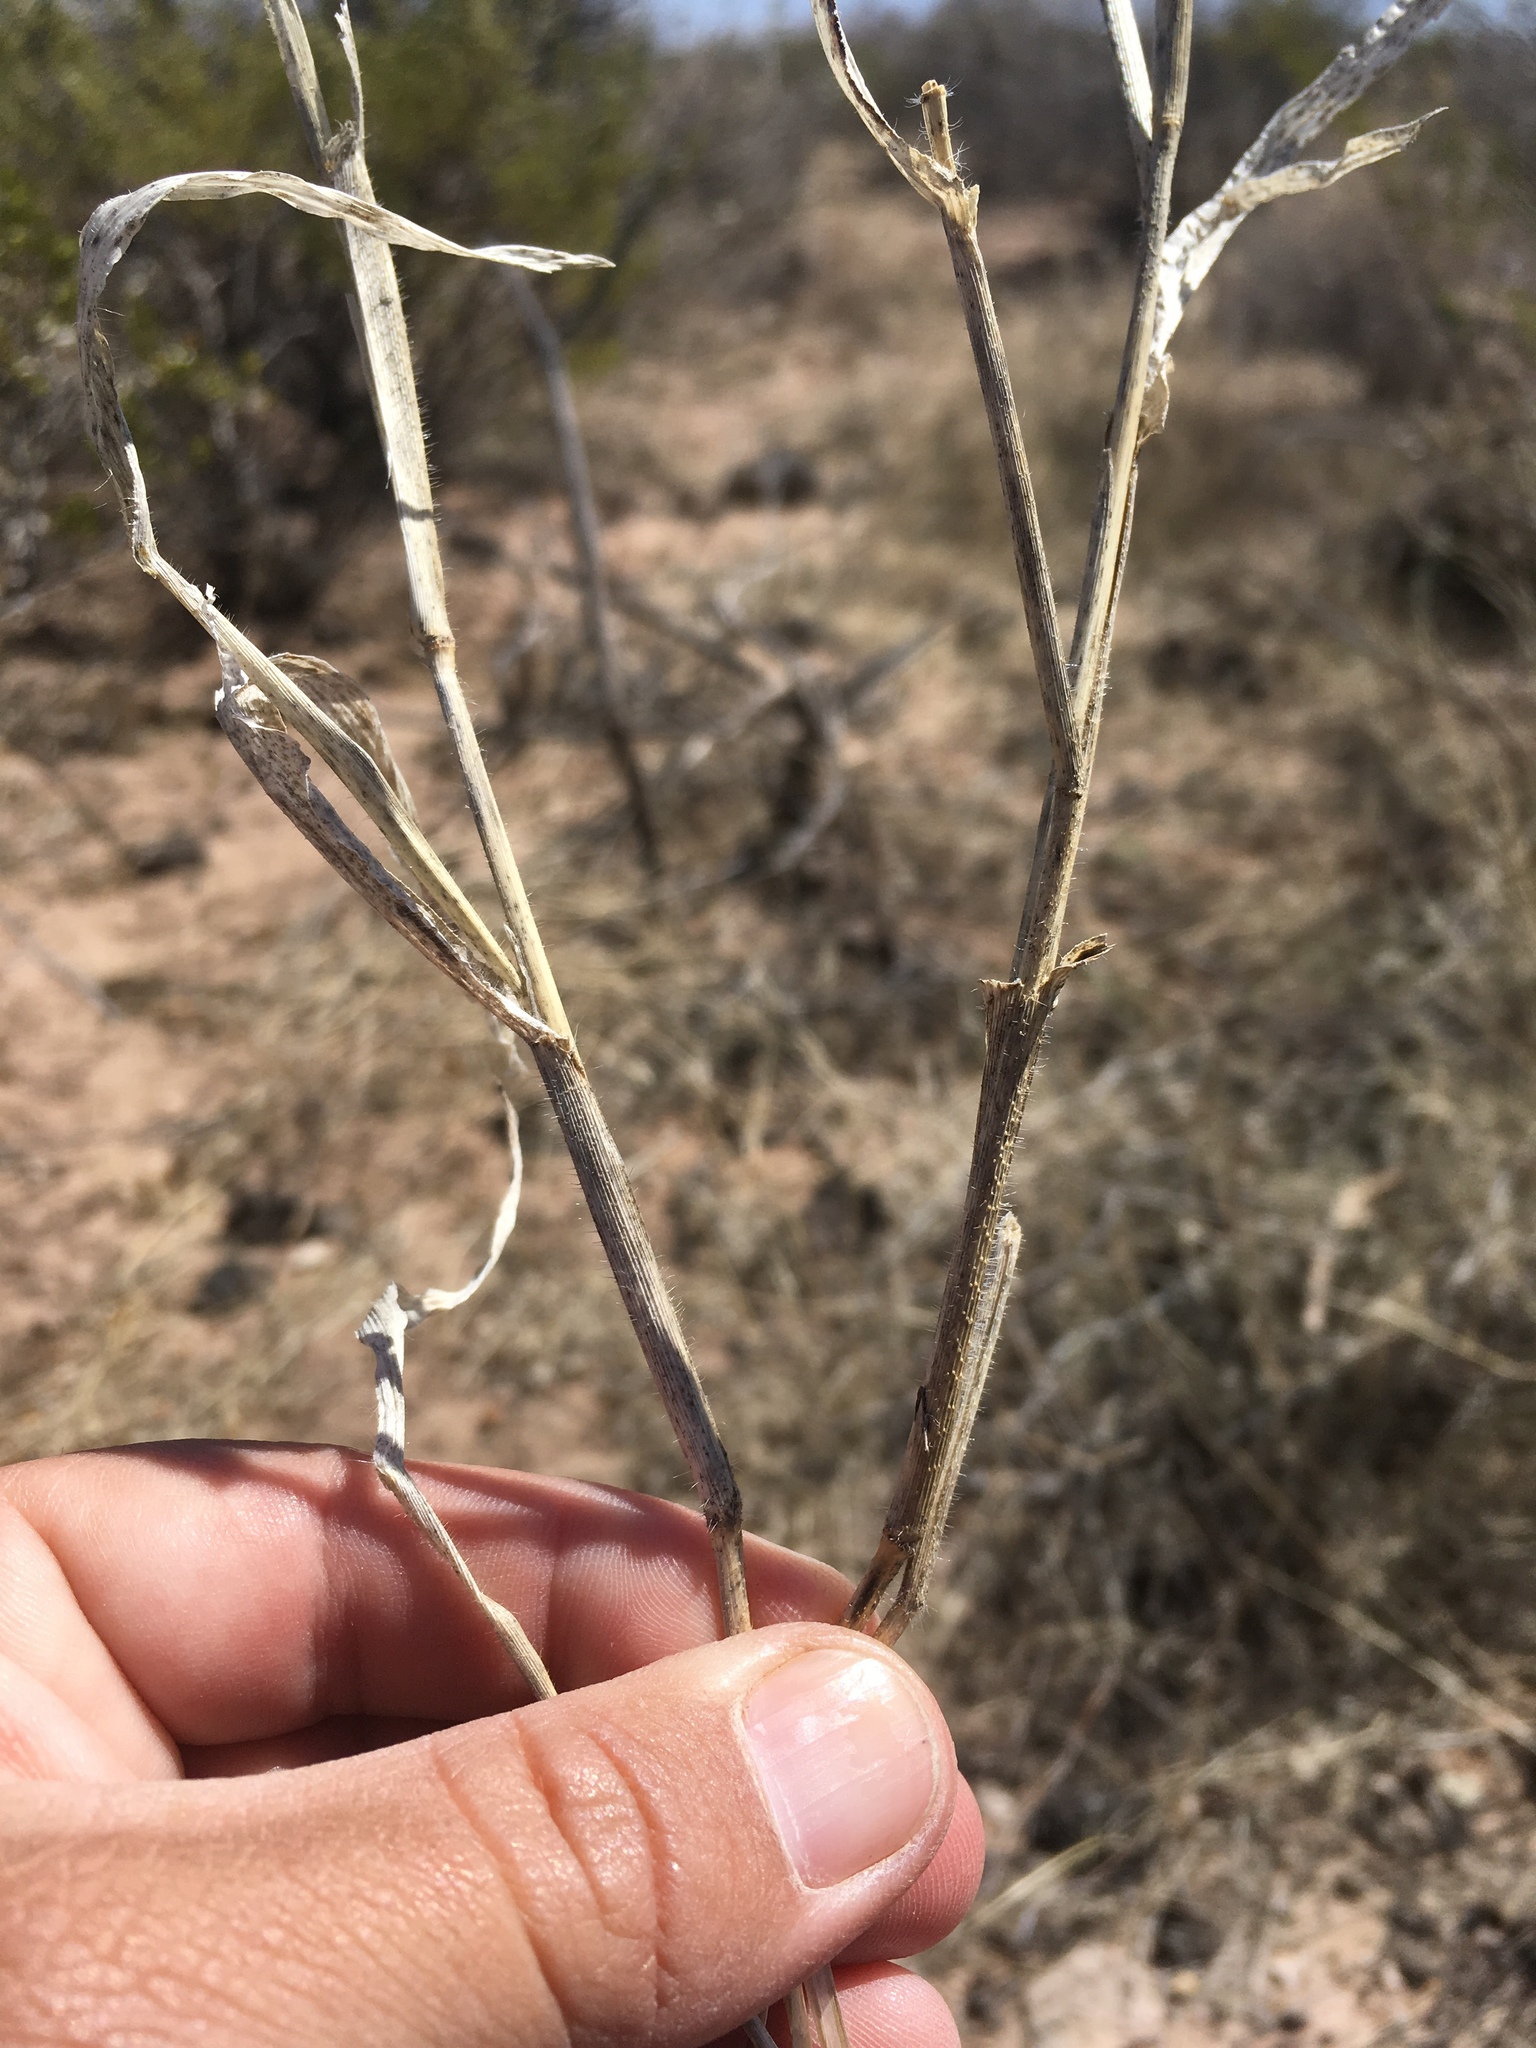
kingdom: Plantae
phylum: Tracheophyta
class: Liliopsida
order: Poales
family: Poaceae
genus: Panicum
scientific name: Panicum hirticaule
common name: Rough-stalk witchgrass
